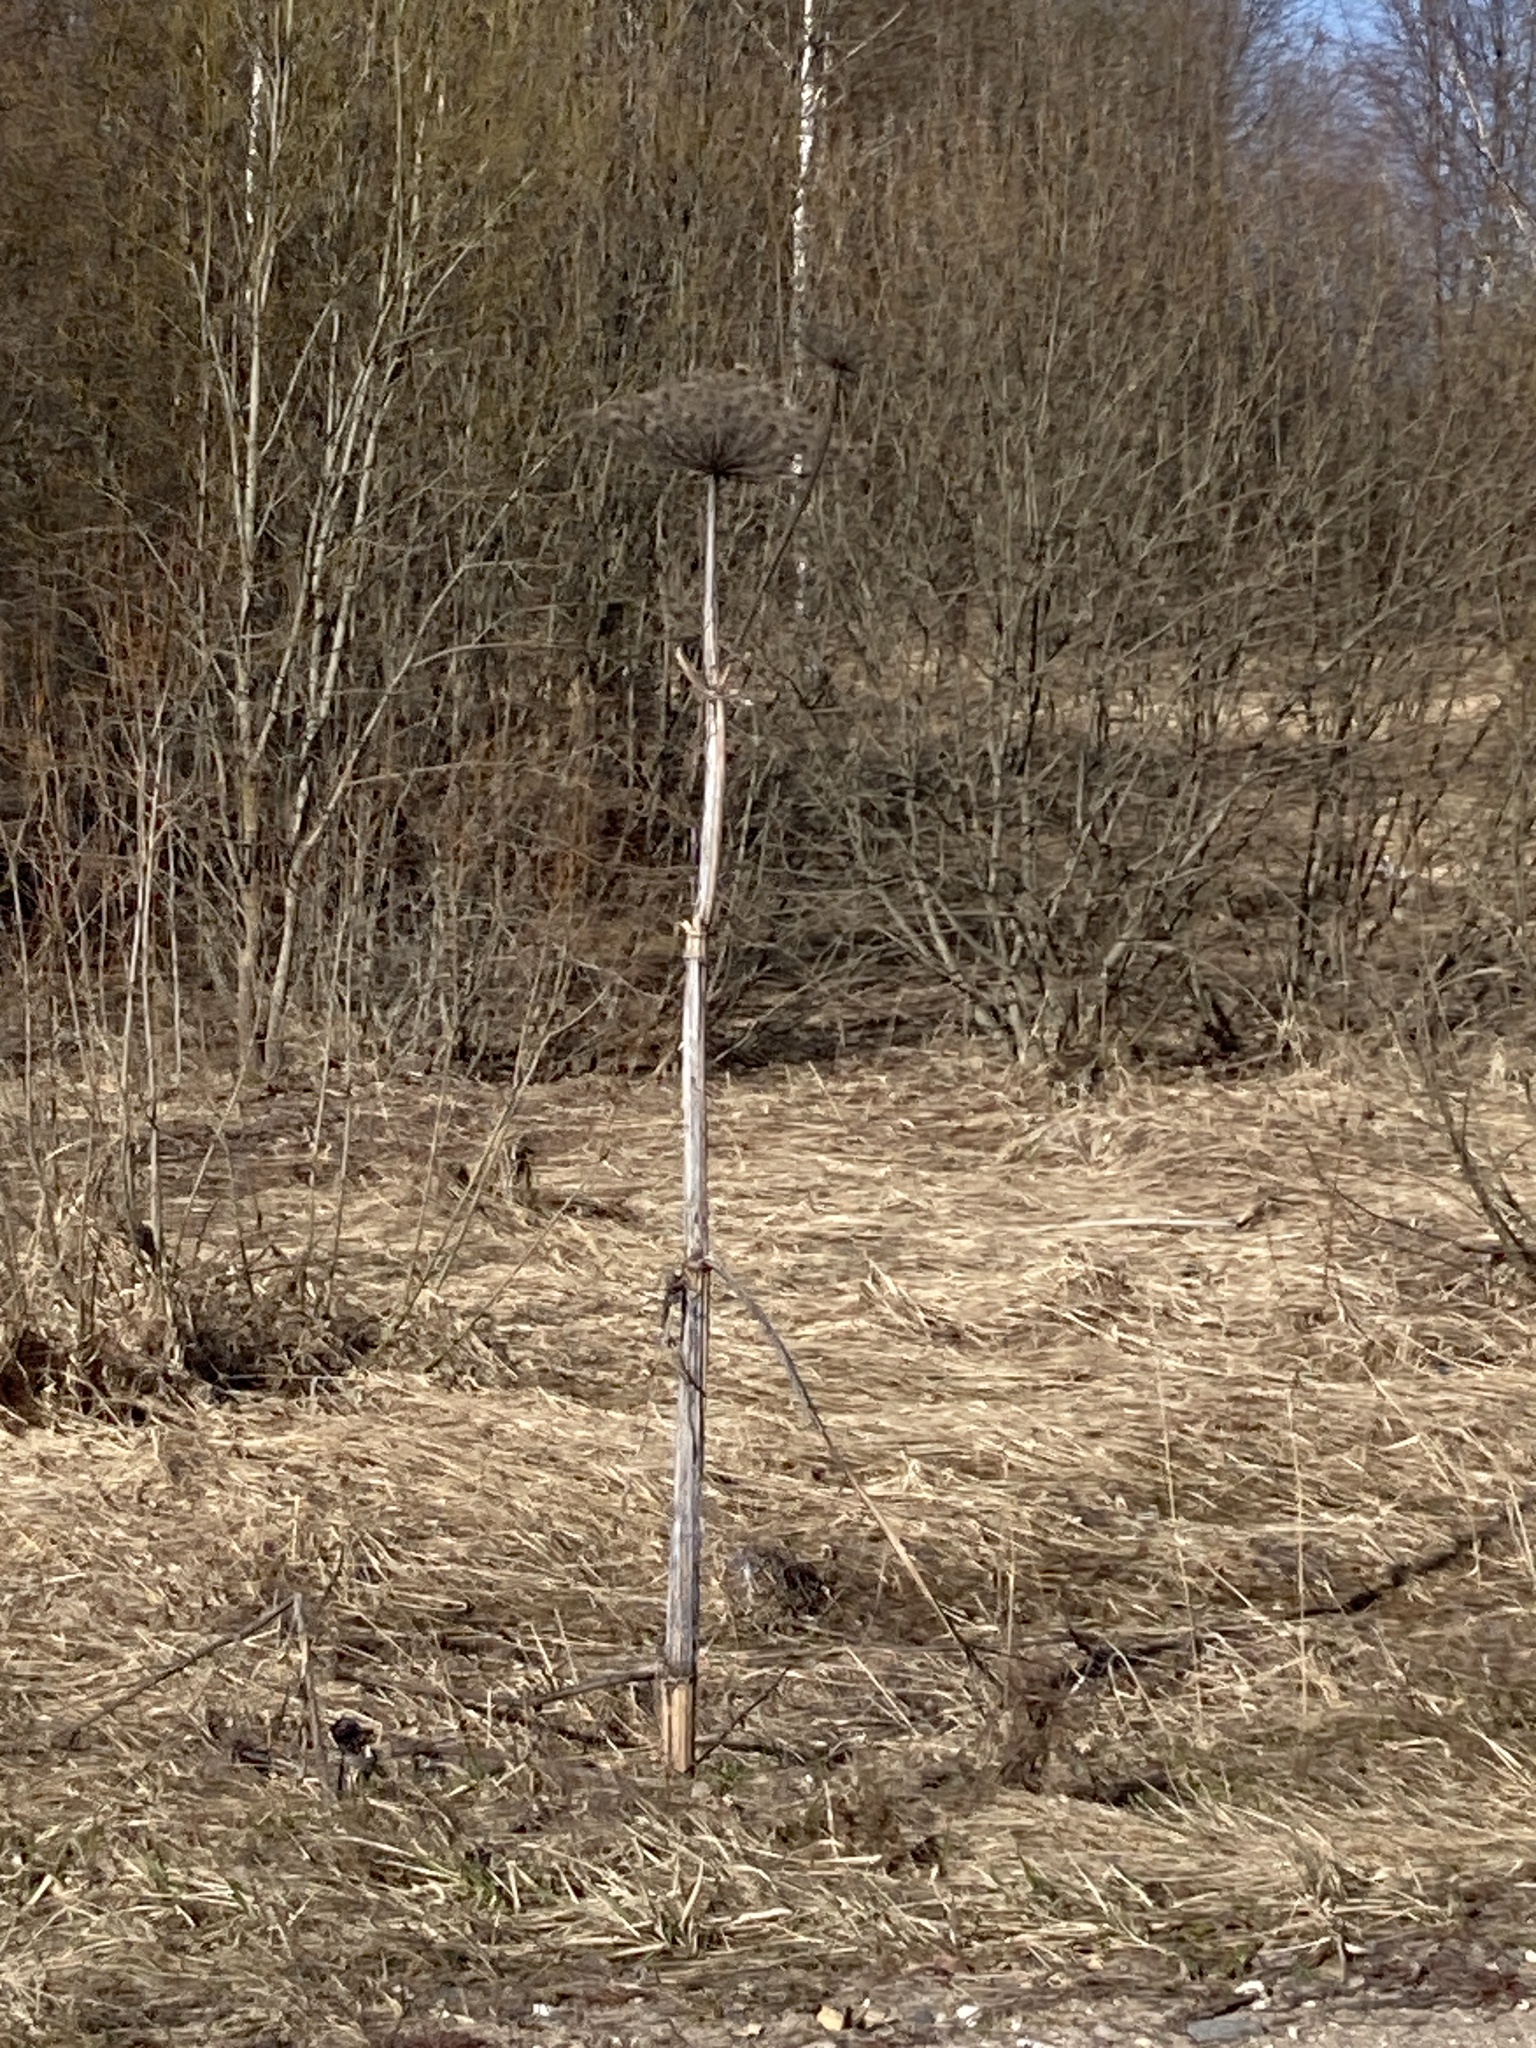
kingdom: Plantae
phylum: Tracheophyta
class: Magnoliopsida
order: Apiales
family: Apiaceae
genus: Heracleum
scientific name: Heracleum sosnowskyi
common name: Sosnowsky's hogweed
